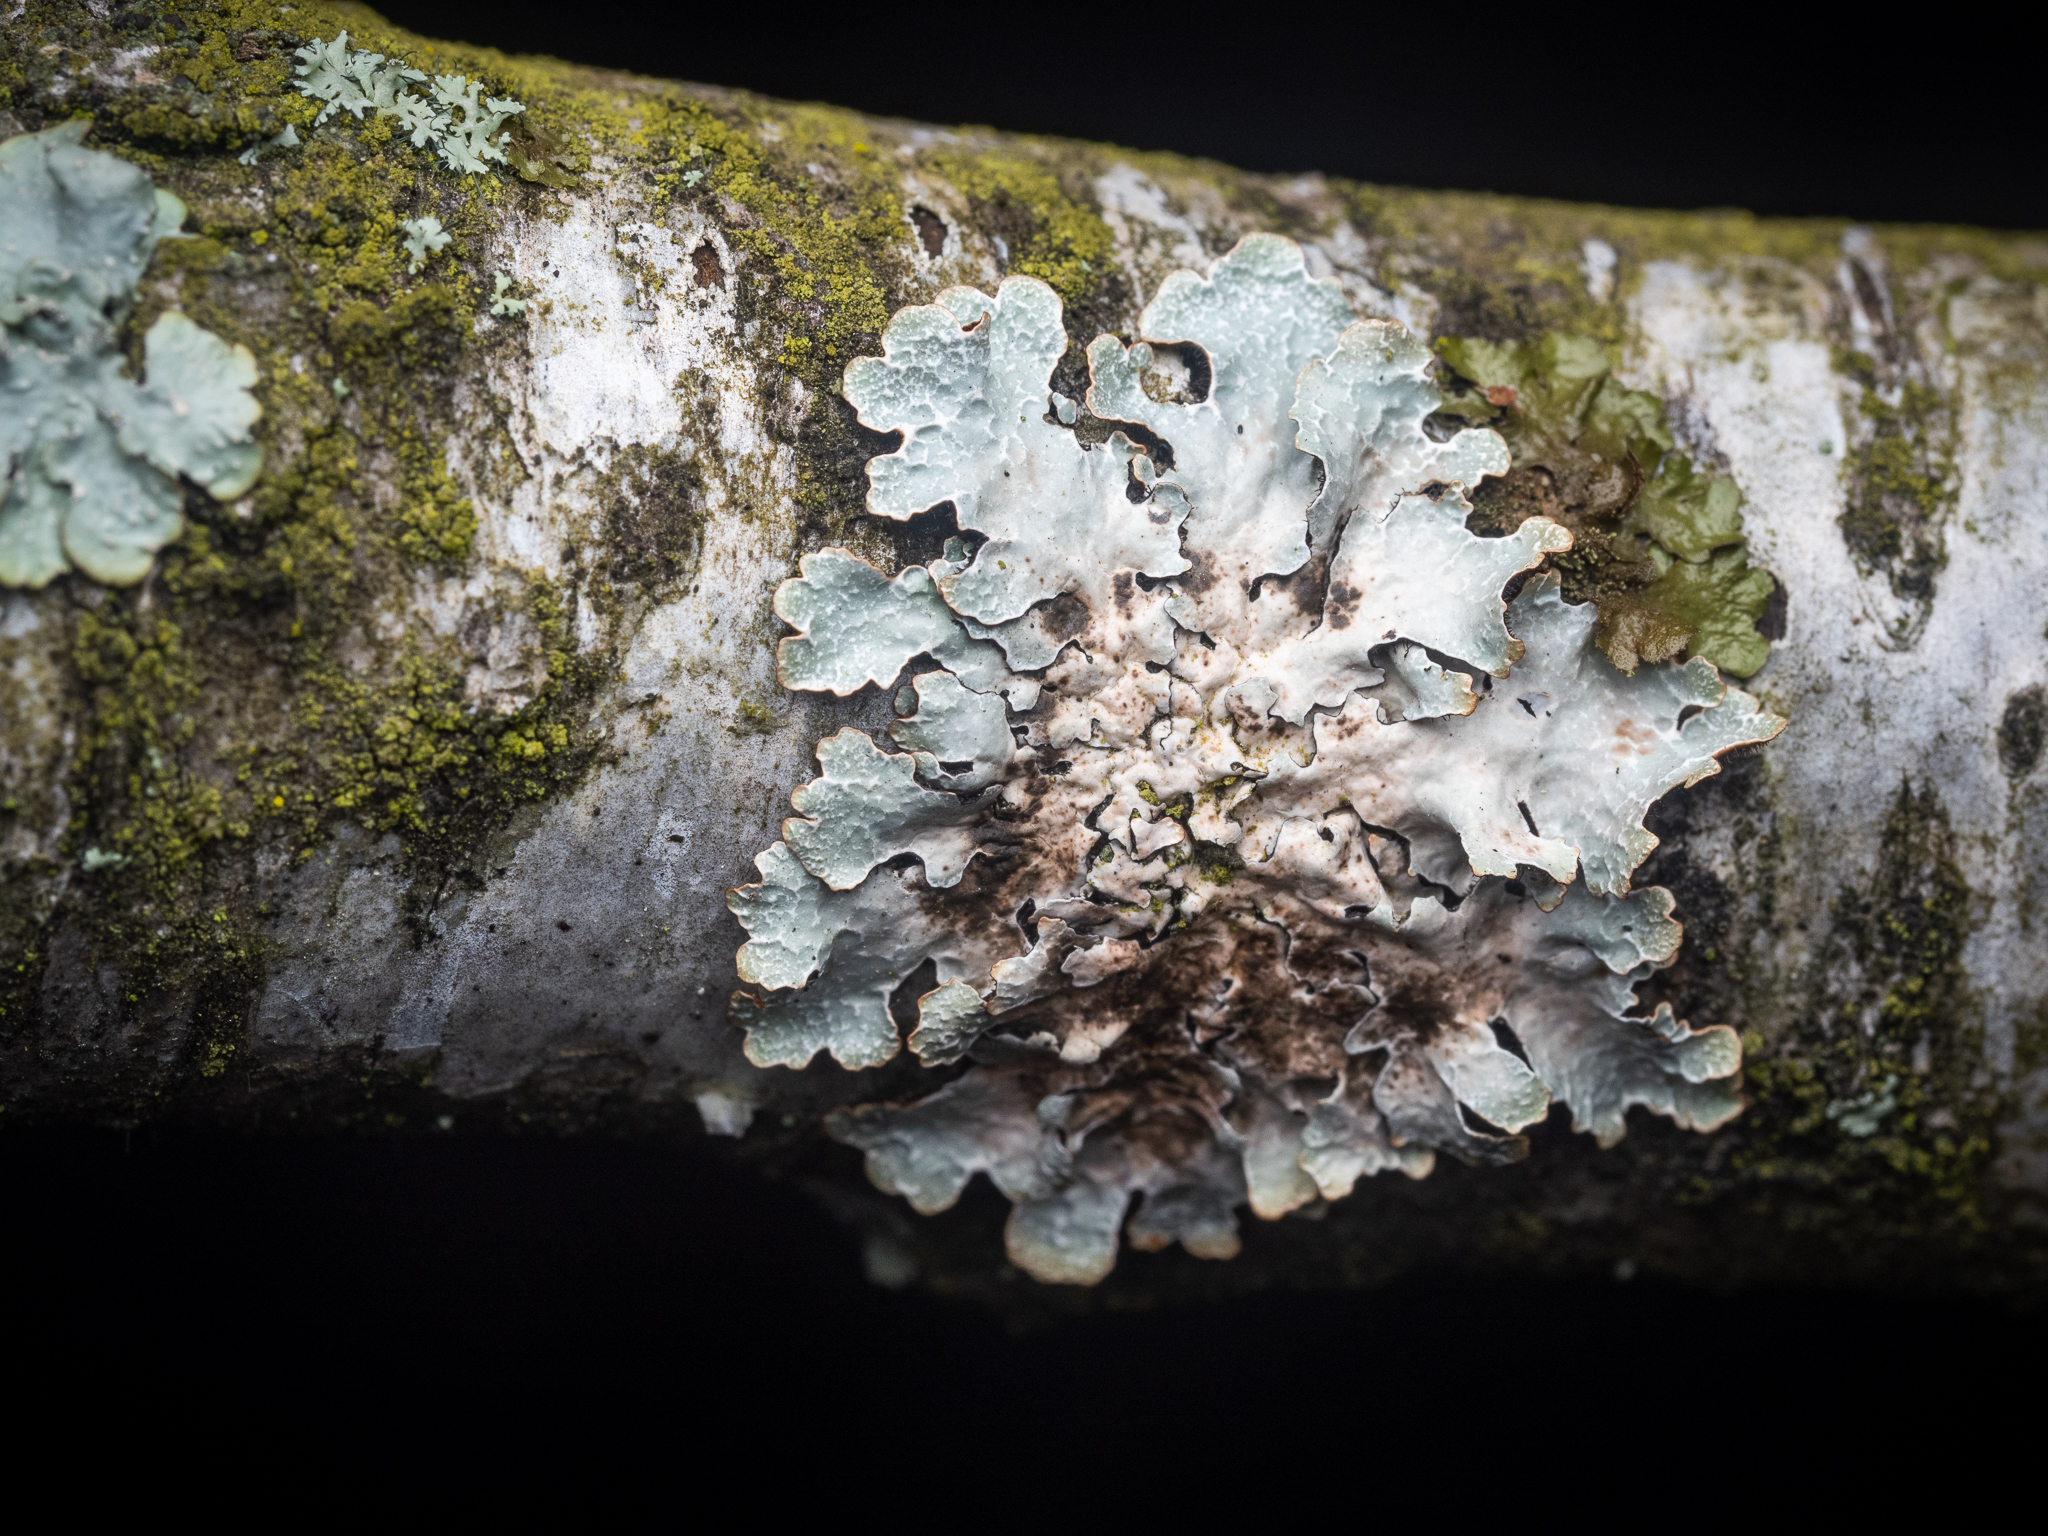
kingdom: Fungi
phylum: Ascomycota
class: Lecanoromycetes
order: Lecanorales
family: Parmeliaceae
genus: Parmelia
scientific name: Parmelia sulcata
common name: Netted shield lichen
